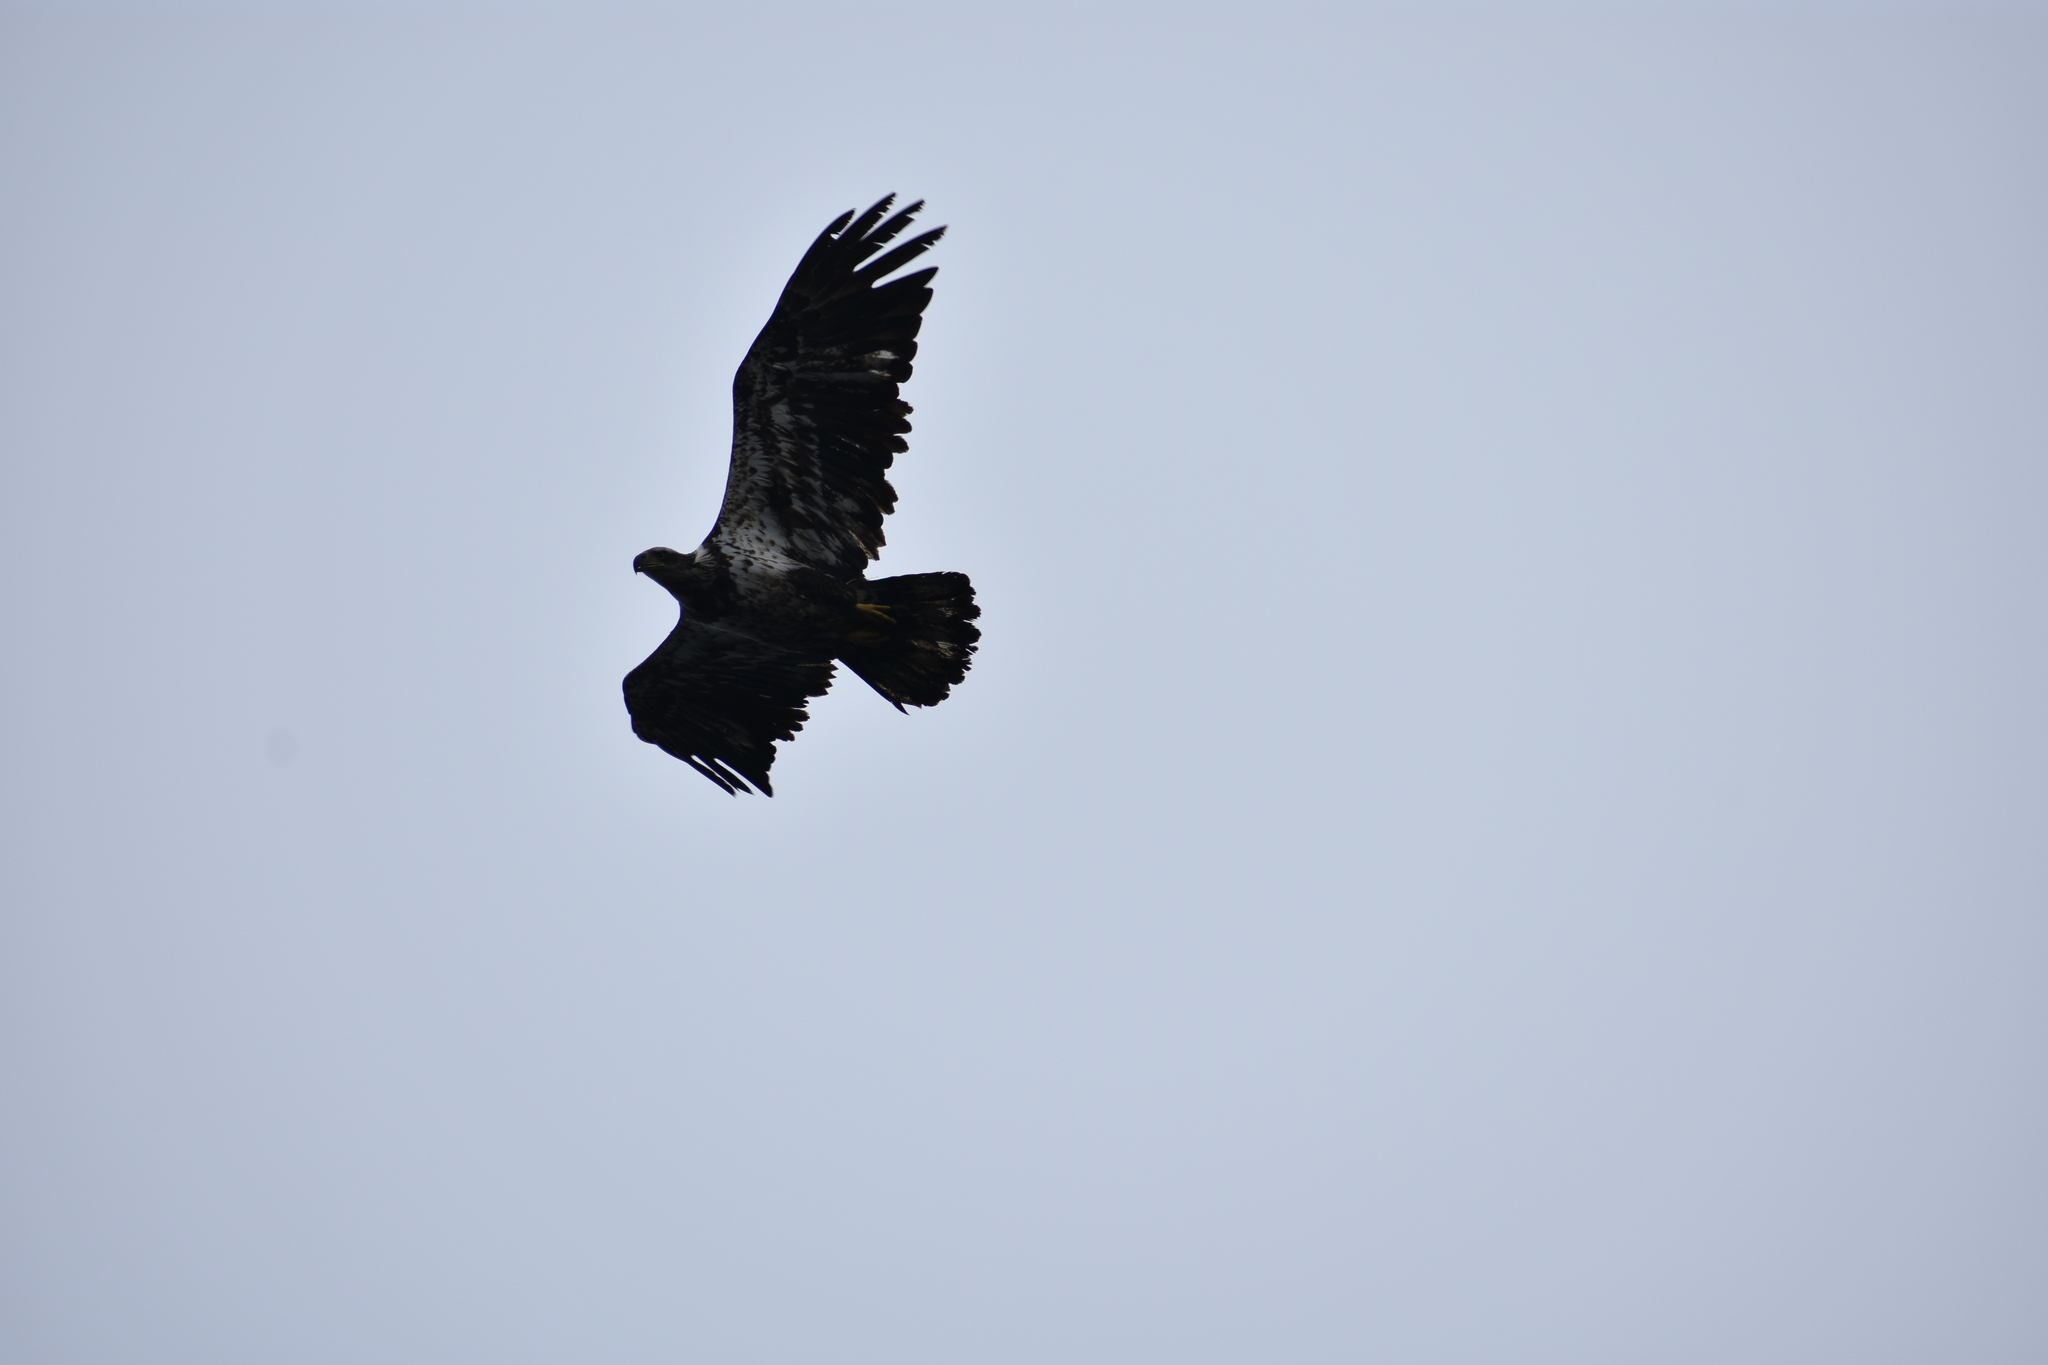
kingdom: Animalia
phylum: Chordata
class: Aves
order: Accipitriformes
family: Accipitridae
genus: Haliaeetus
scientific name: Haliaeetus leucocephalus
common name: Bald eagle
